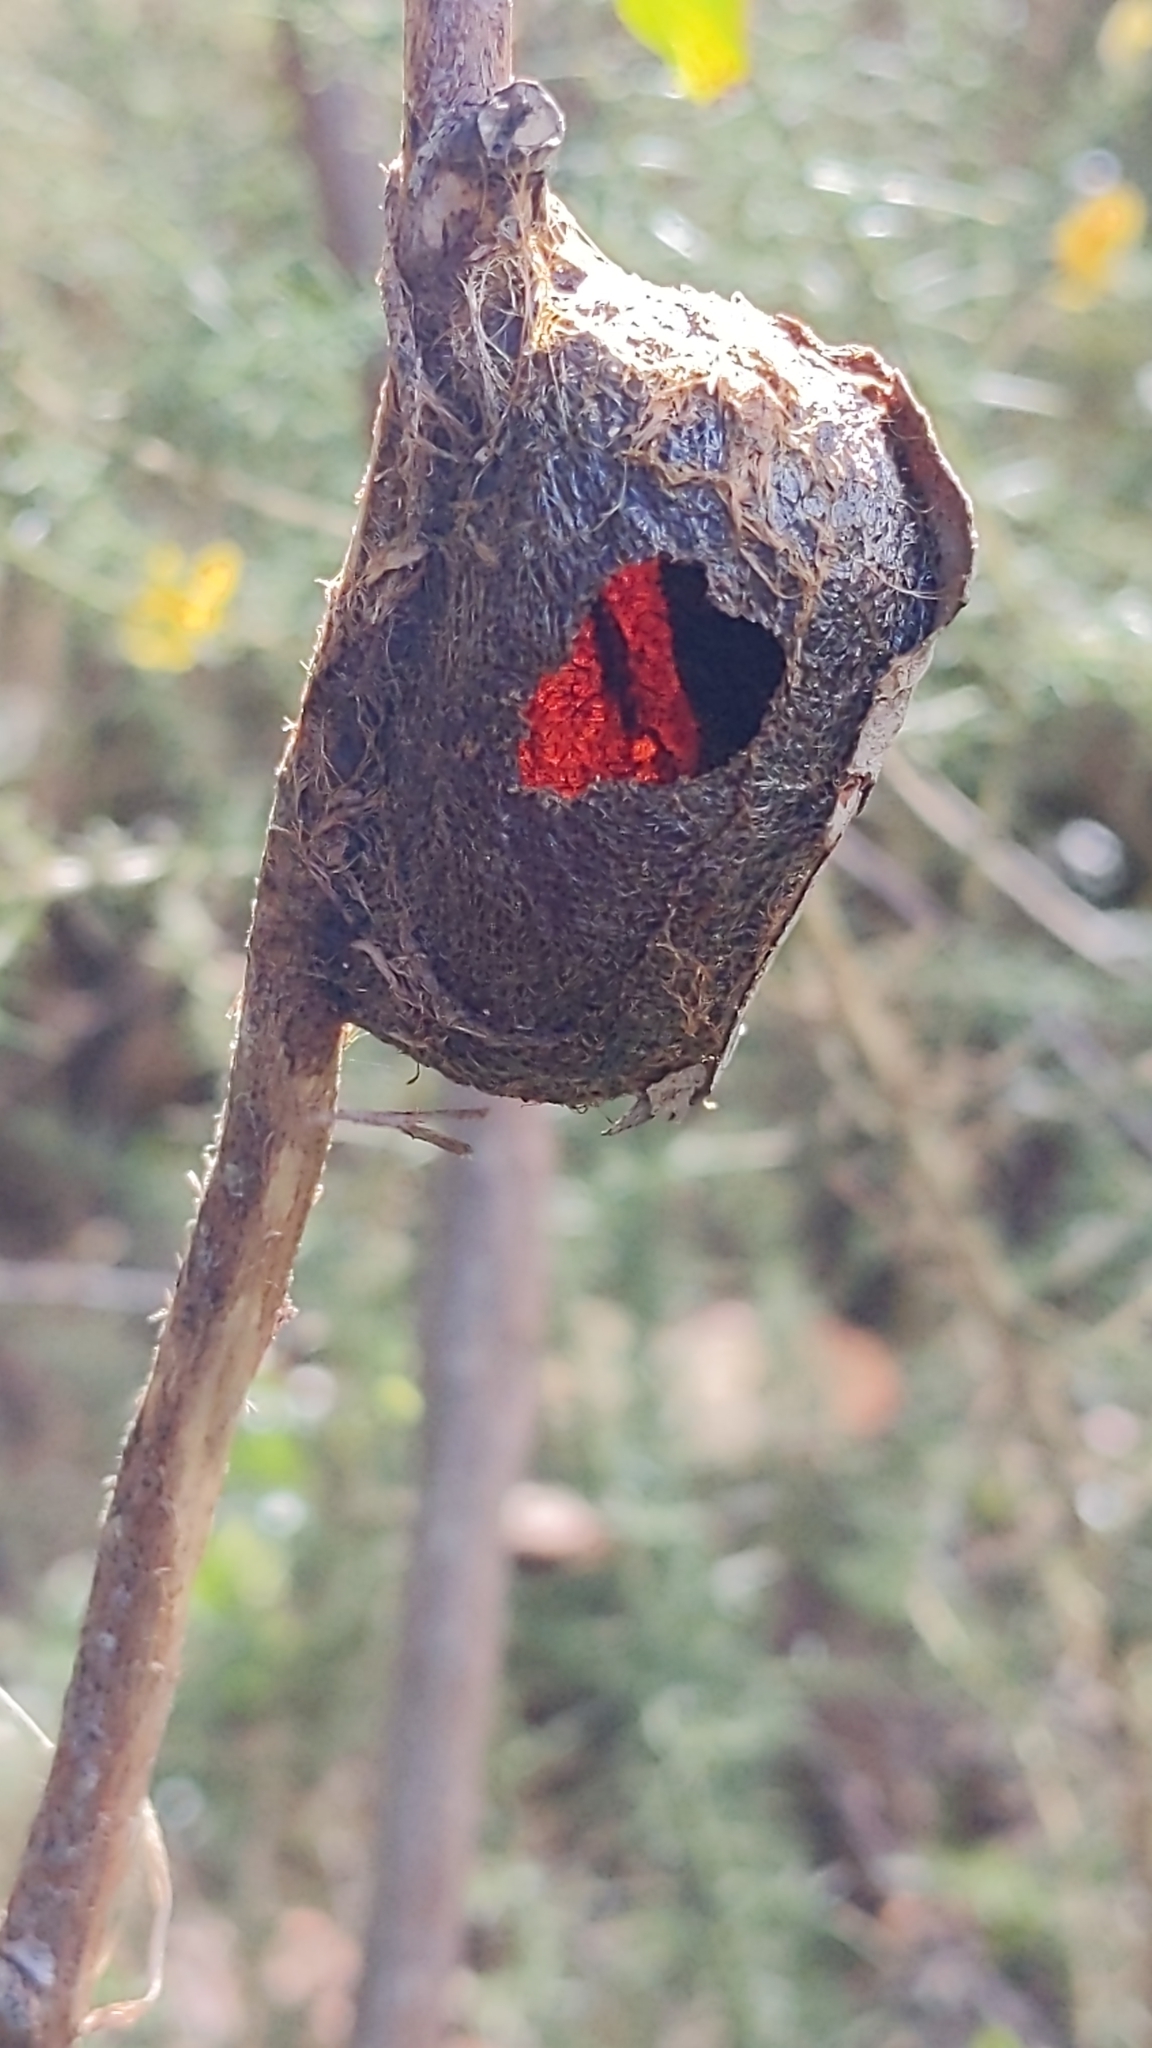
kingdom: Animalia
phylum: Arthropoda
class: Insecta
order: Lepidoptera
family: Saturniidae
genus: Opodiphthera
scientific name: Opodiphthera
